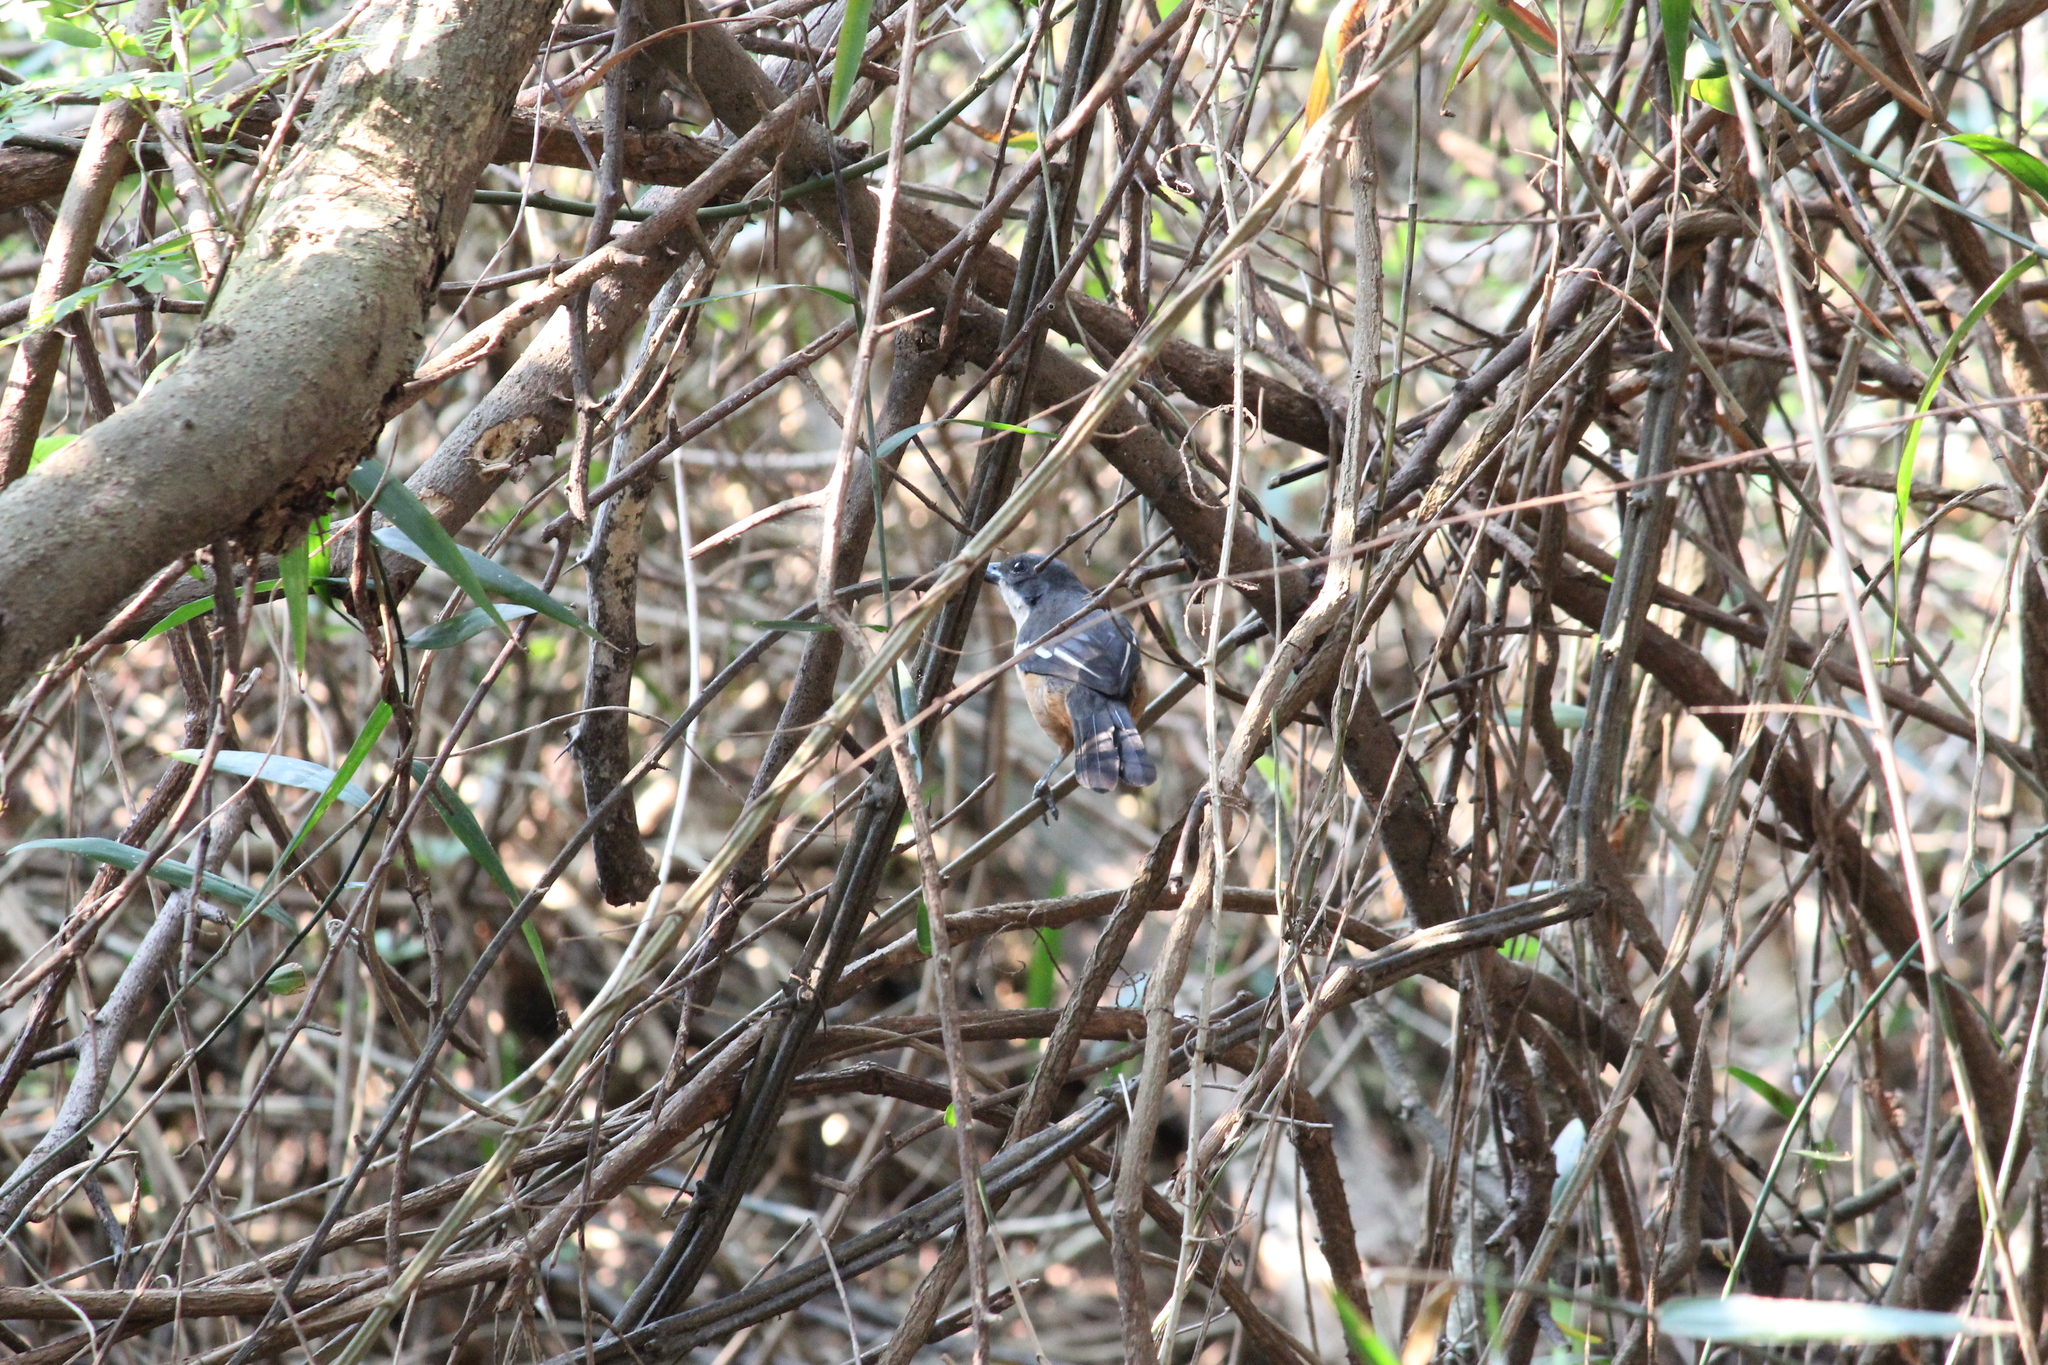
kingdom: Animalia
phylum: Chordata
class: Aves
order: Passeriformes
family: Malaconotidae
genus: Laniarius
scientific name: Laniarius ferrugineus
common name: Southern boubou
